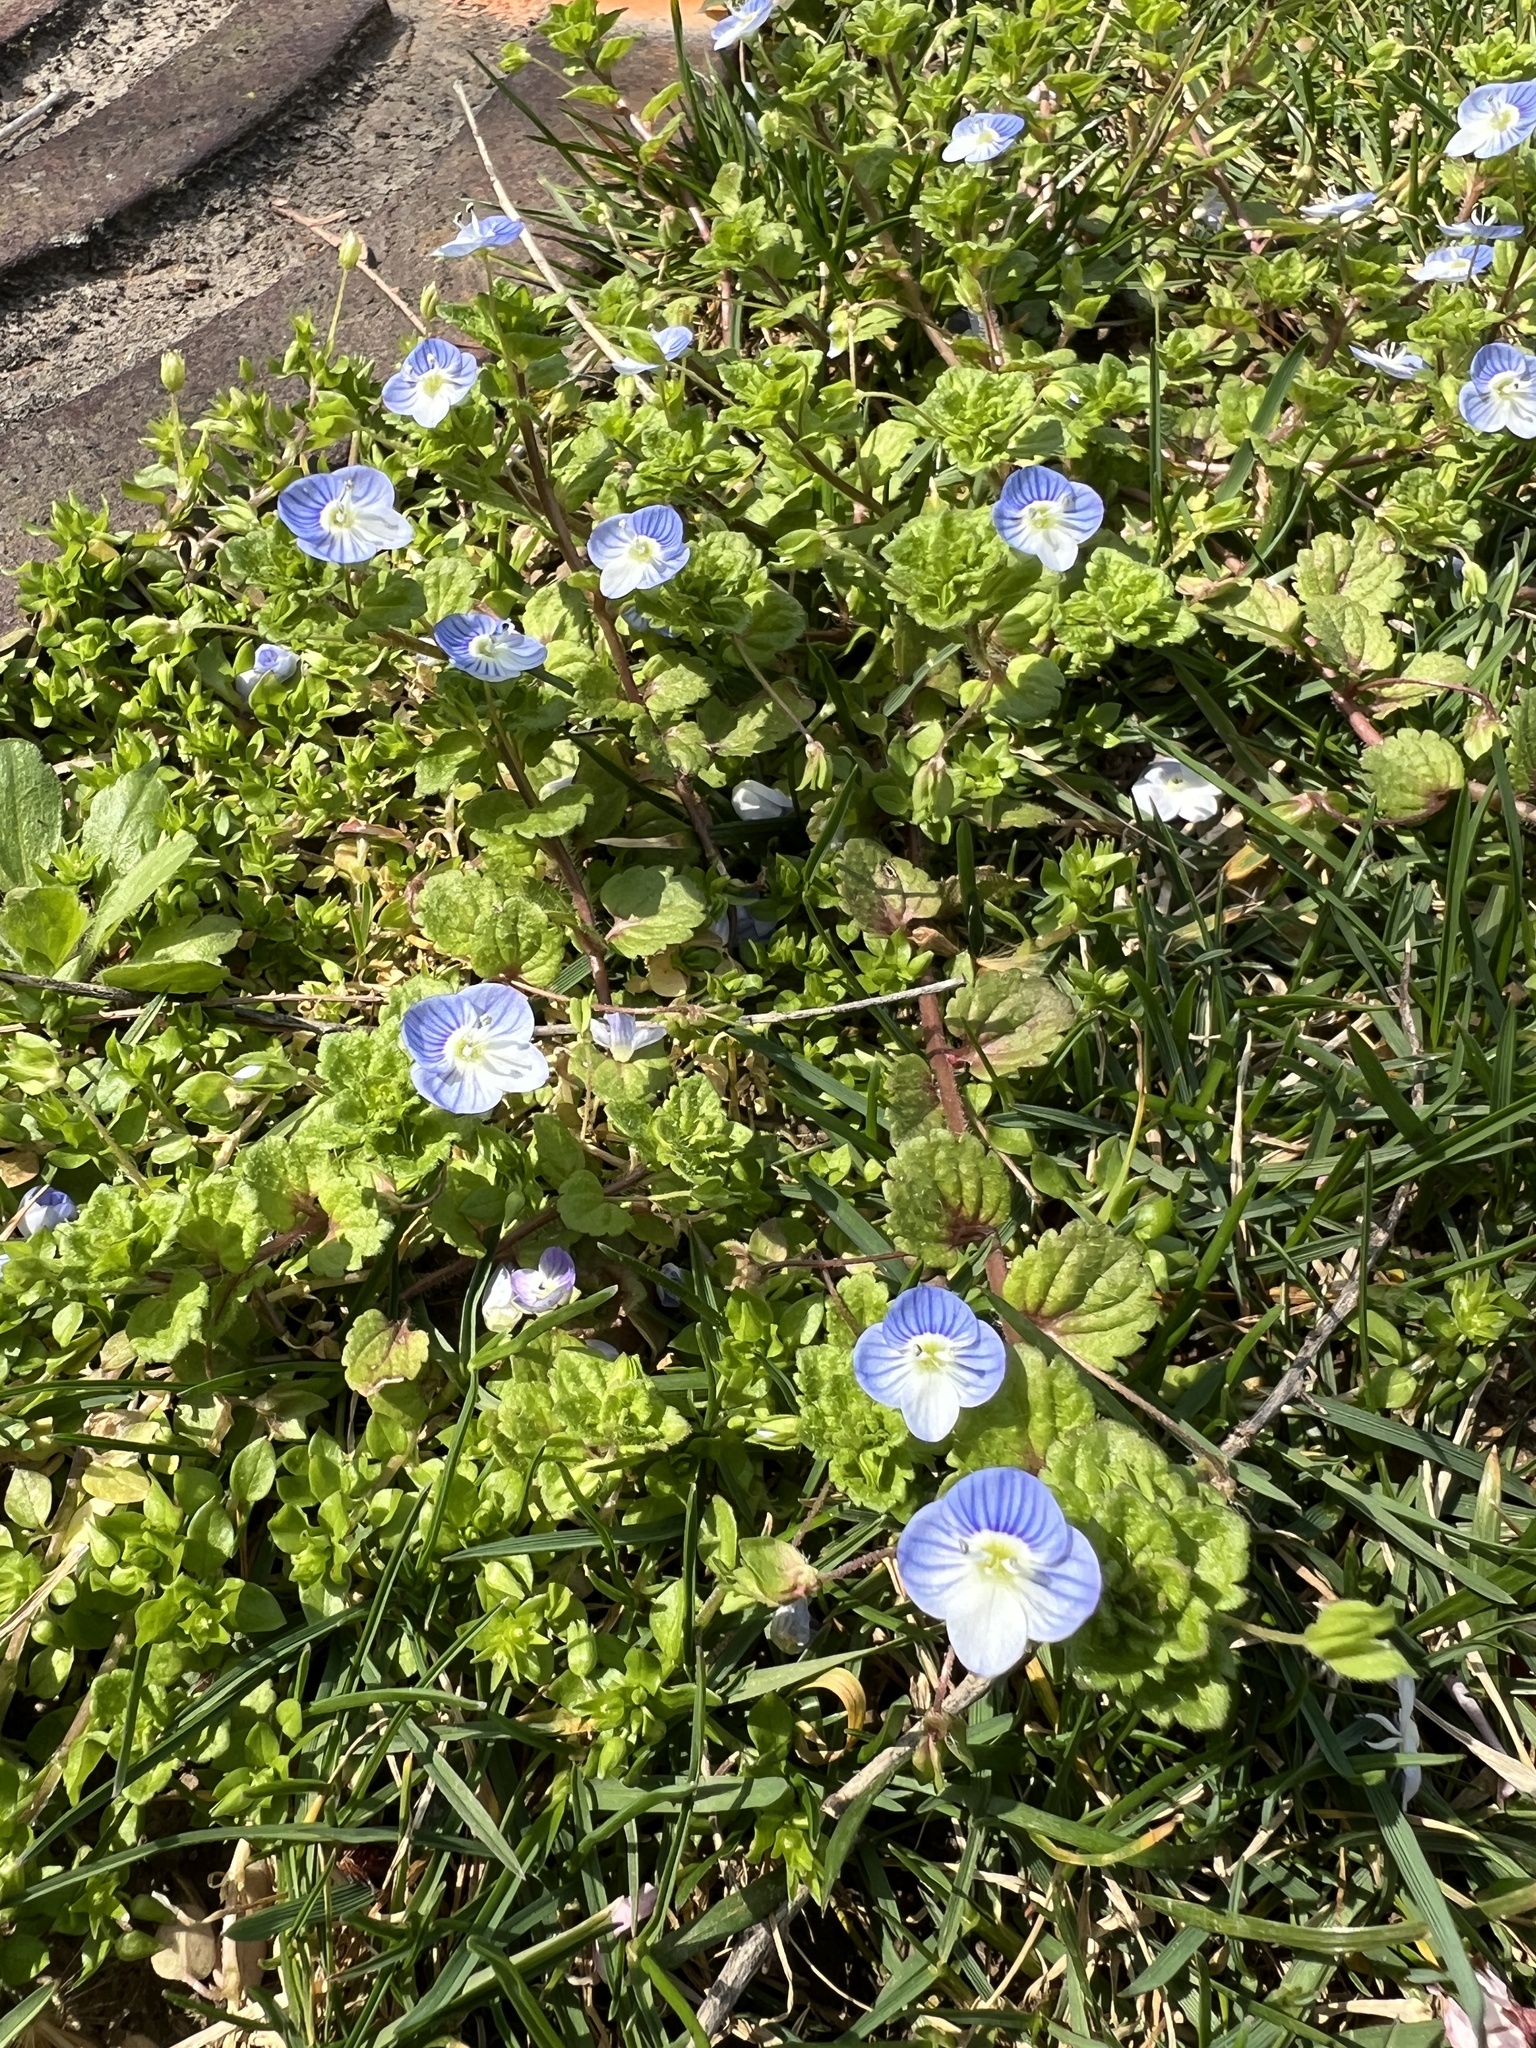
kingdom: Plantae
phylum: Tracheophyta
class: Magnoliopsida
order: Lamiales
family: Plantaginaceae
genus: Veronica
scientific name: Veronica persica
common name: Common field-speedwell
